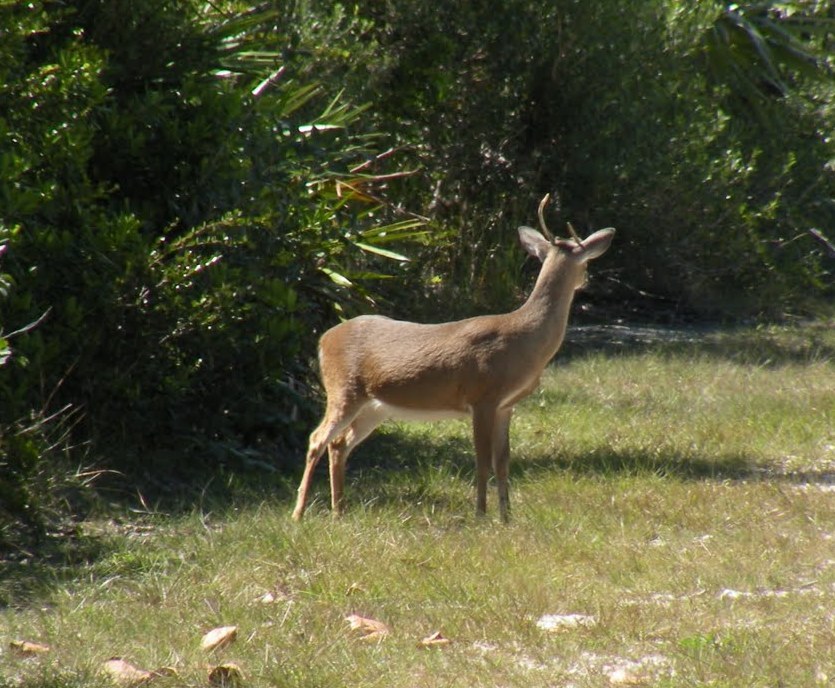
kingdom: Animalia
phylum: Chordata
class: Mammalia
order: Artiodactyla
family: Cervidae
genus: Odocoileus
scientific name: Odocoileus virginianus
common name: White-tailed deer
